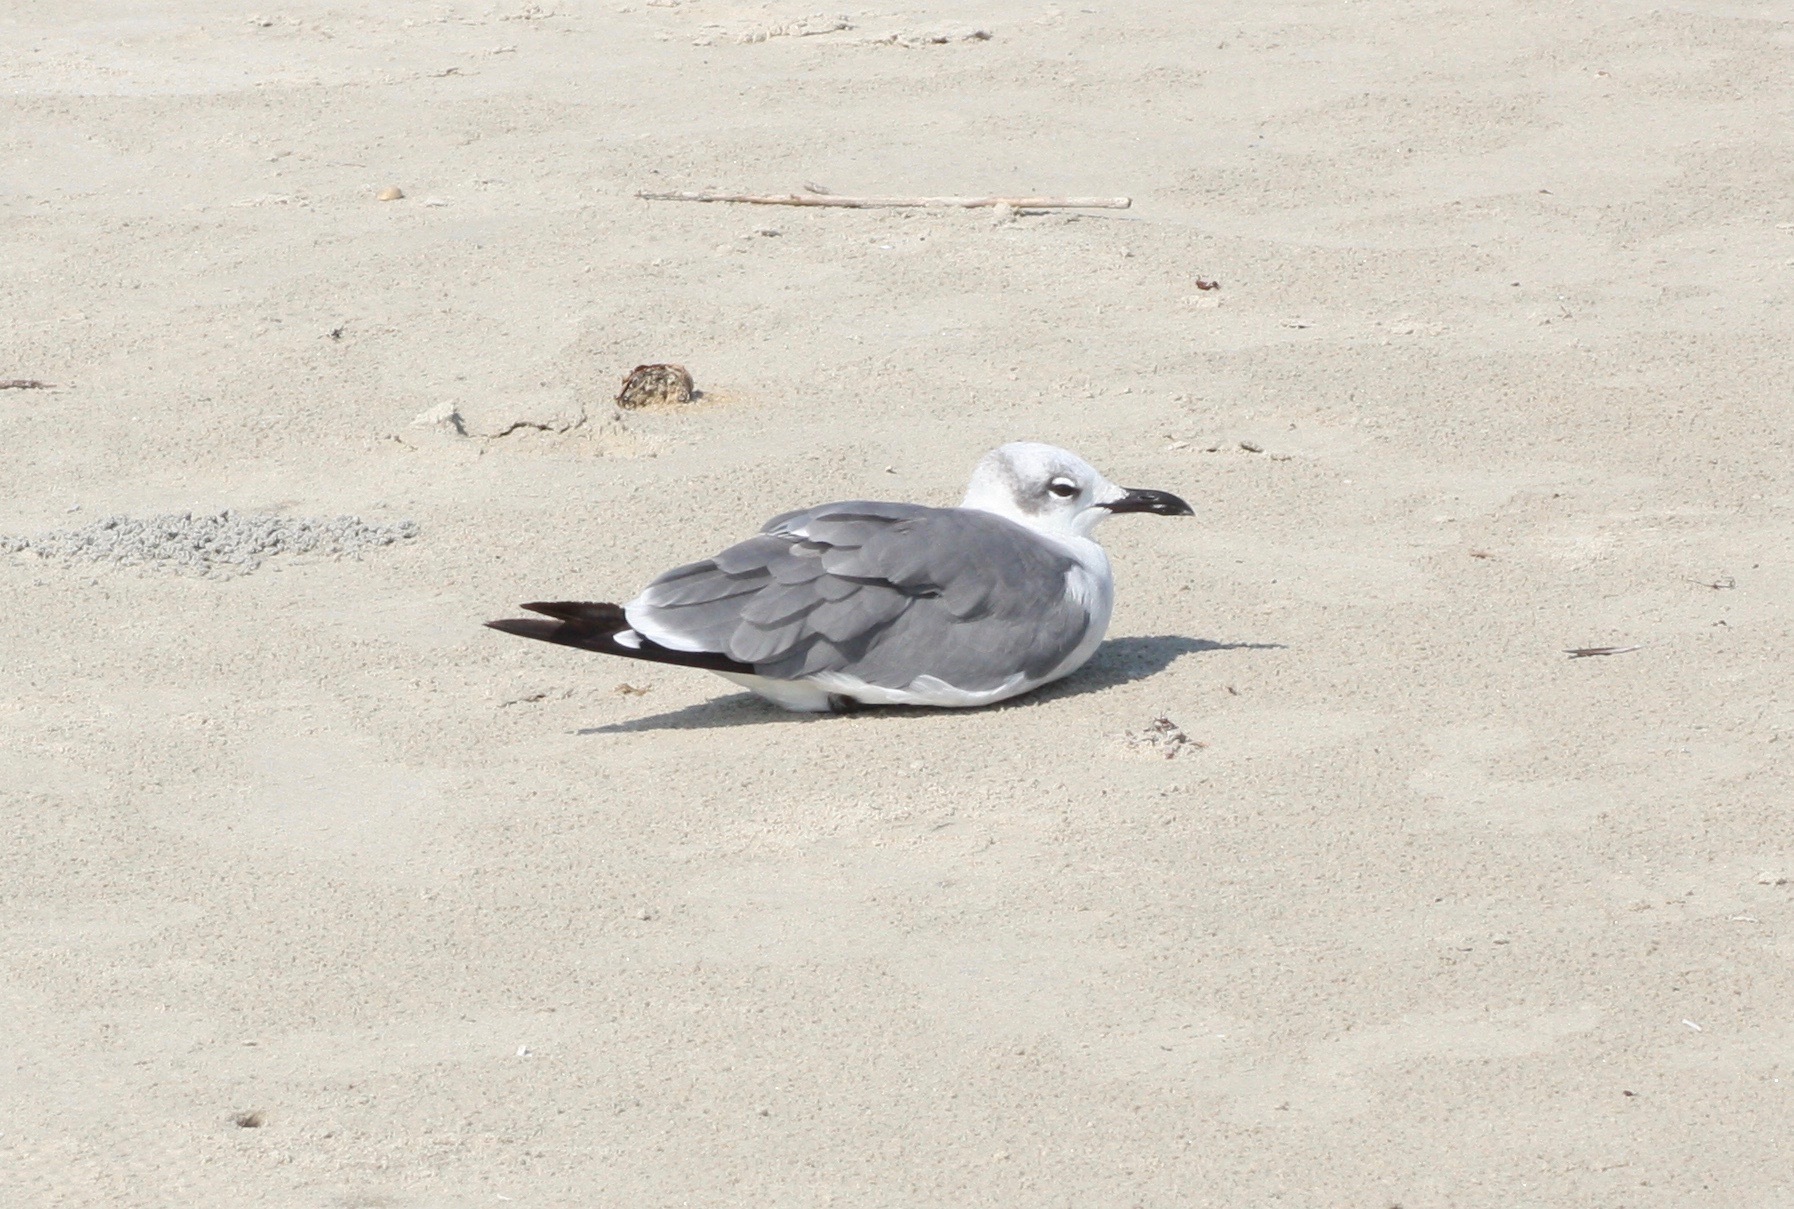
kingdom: Animalia
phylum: Chordata
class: Aves
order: Charadriiformes
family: Laridae
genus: Leucophaeus
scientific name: Leucophaeus atricilla
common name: Laughing gull
